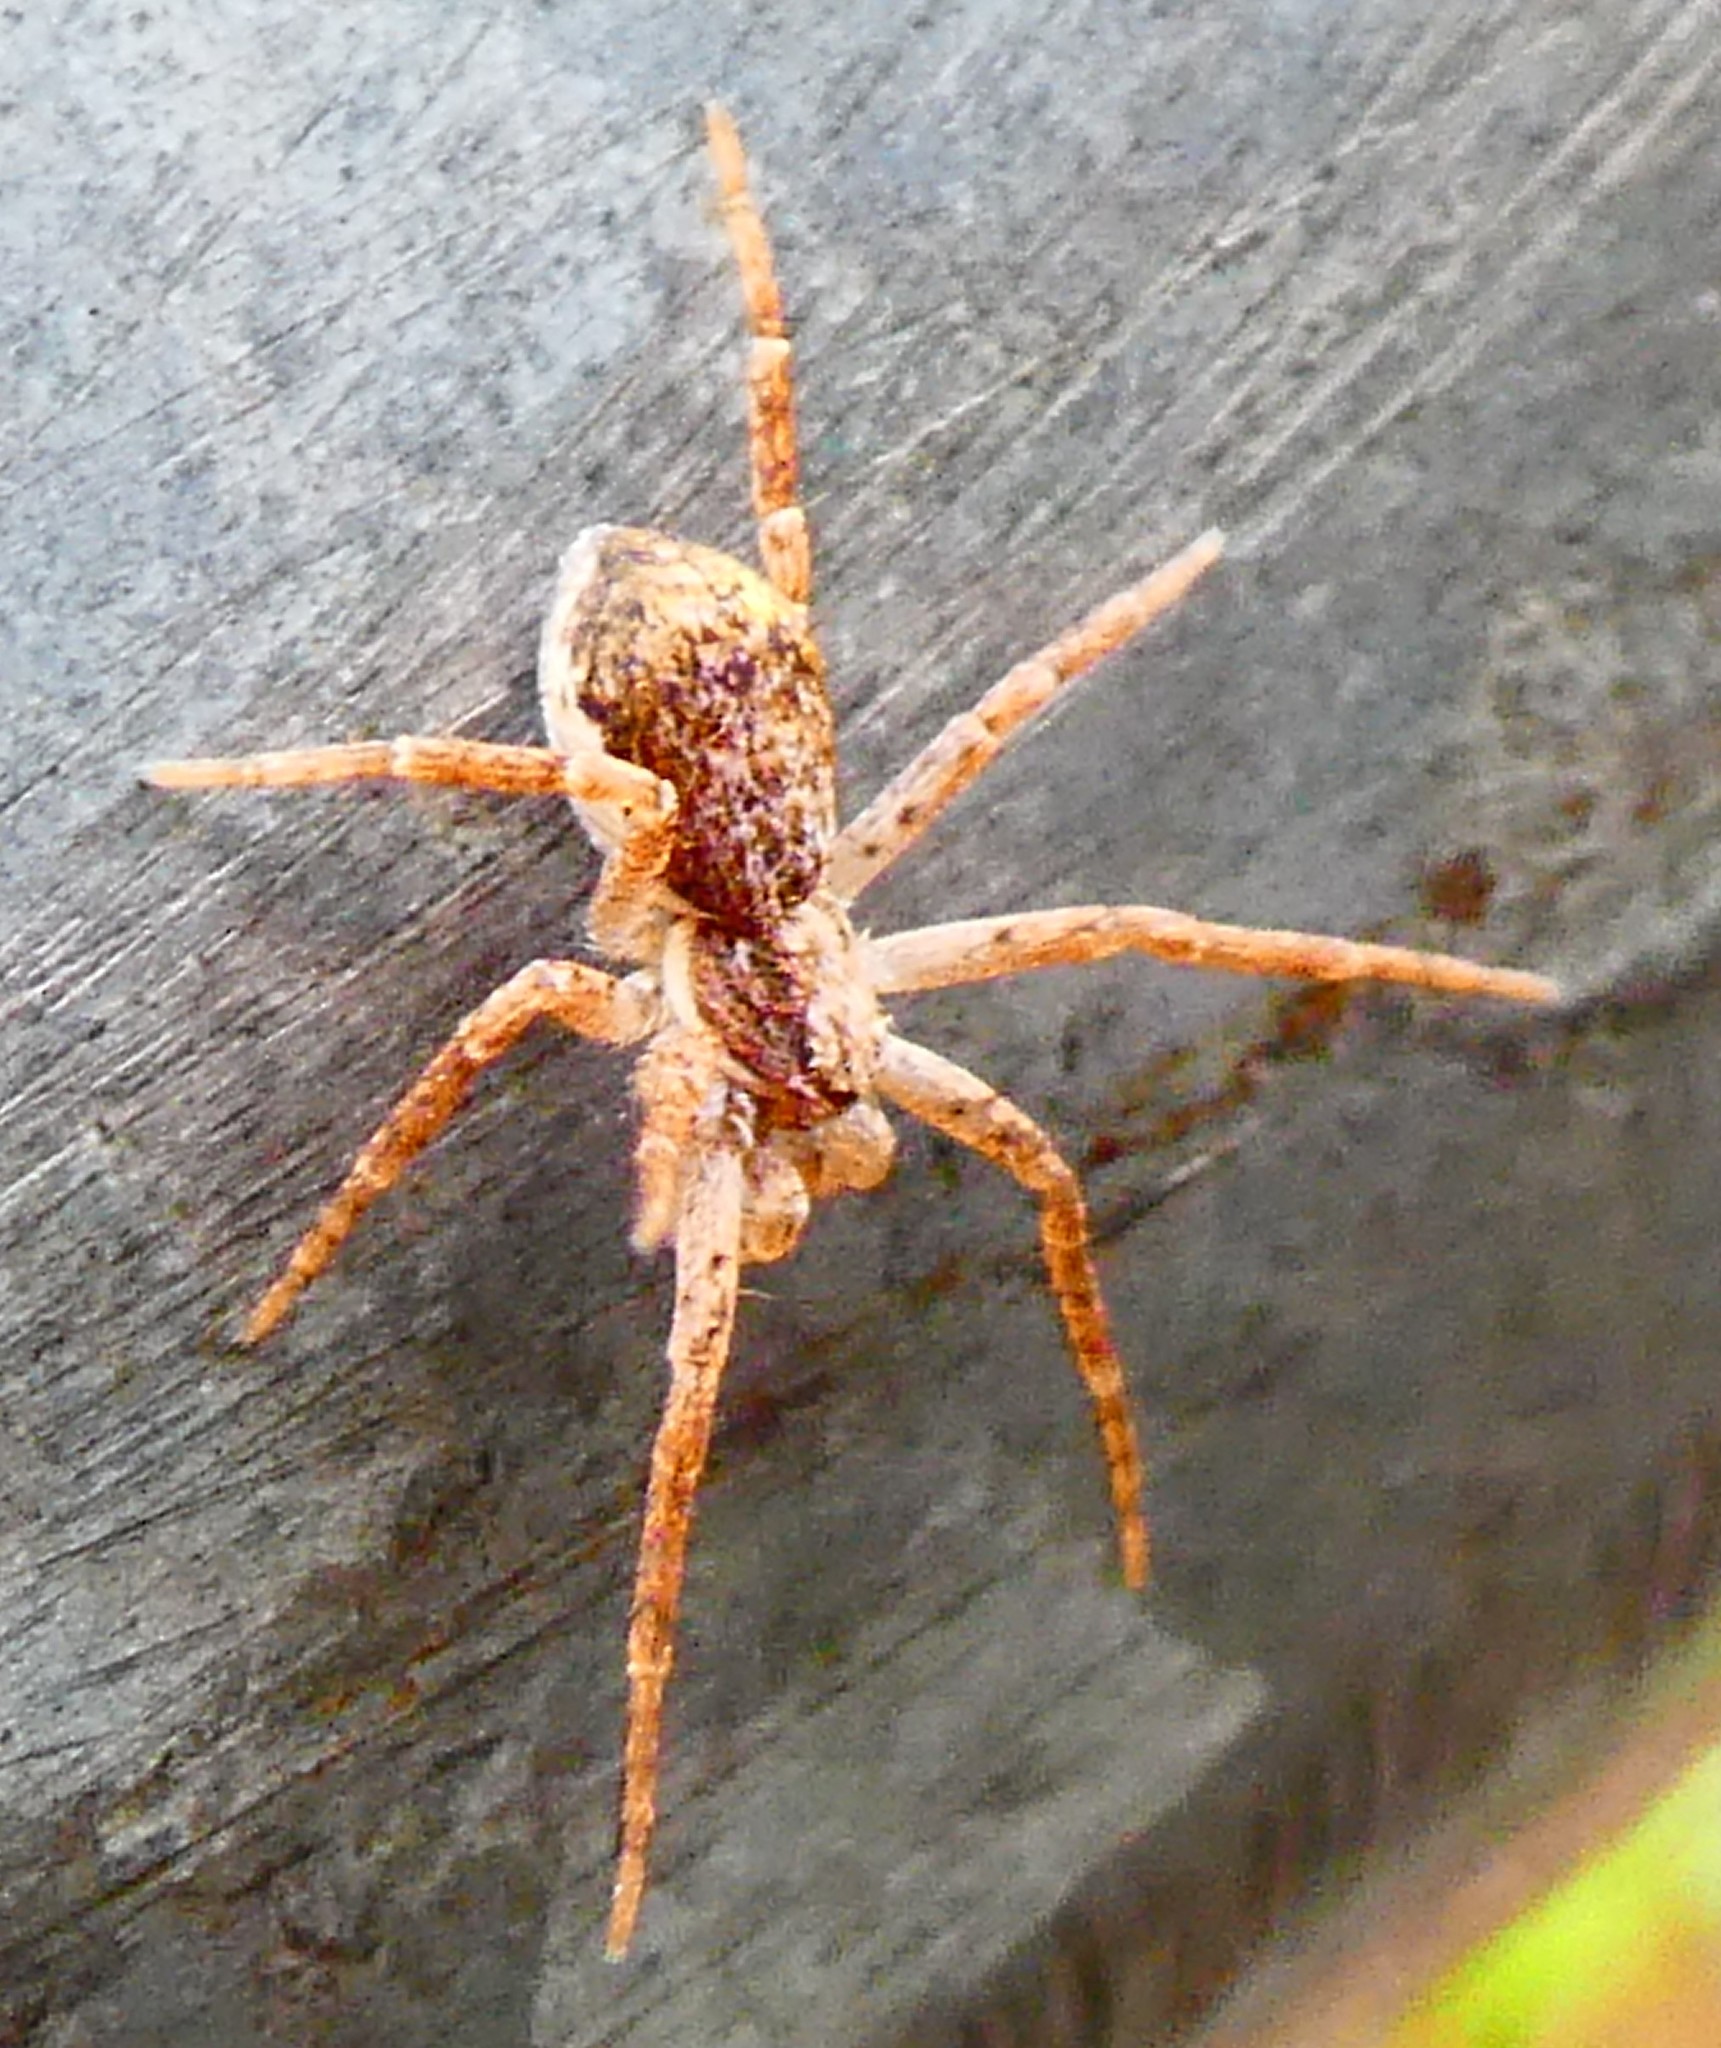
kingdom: Animalia
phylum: Arthropoda
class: Arachnida
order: Araneae
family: Philodromidae
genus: Philodromus
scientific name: Philodromus dispar
